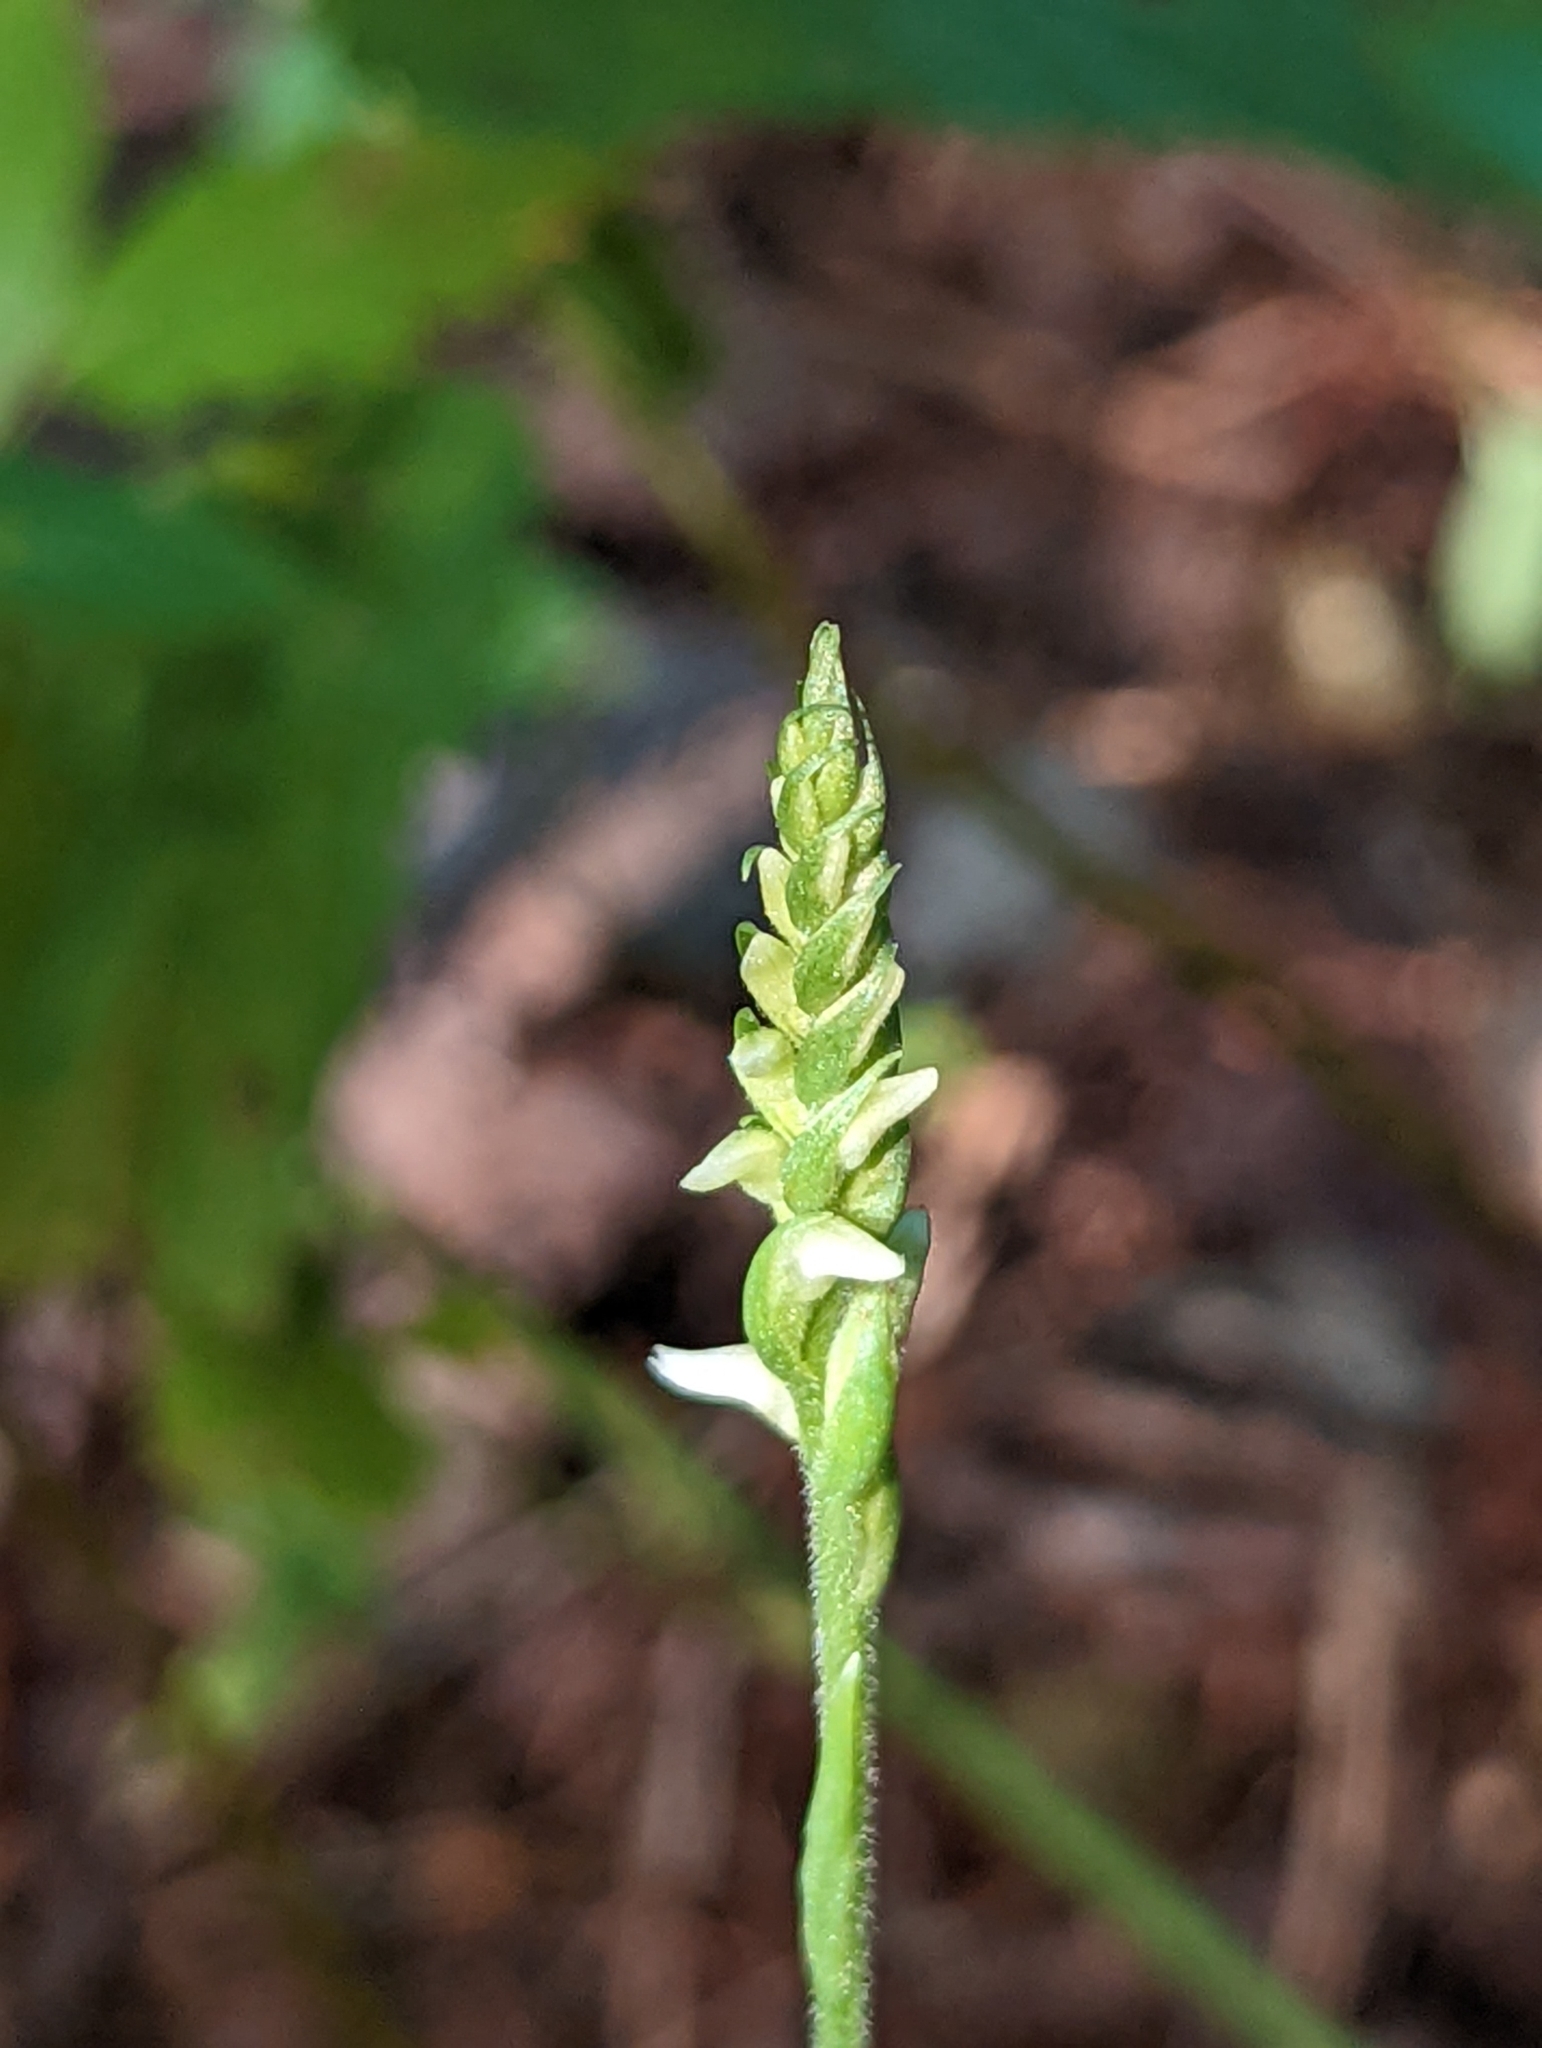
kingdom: Plantae
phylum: Tracheophyta
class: Liliopsida
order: Asparagales
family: Orchidaceae
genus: Spiranthes
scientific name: Spiranthes ovalis
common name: October ladies'-tresses
